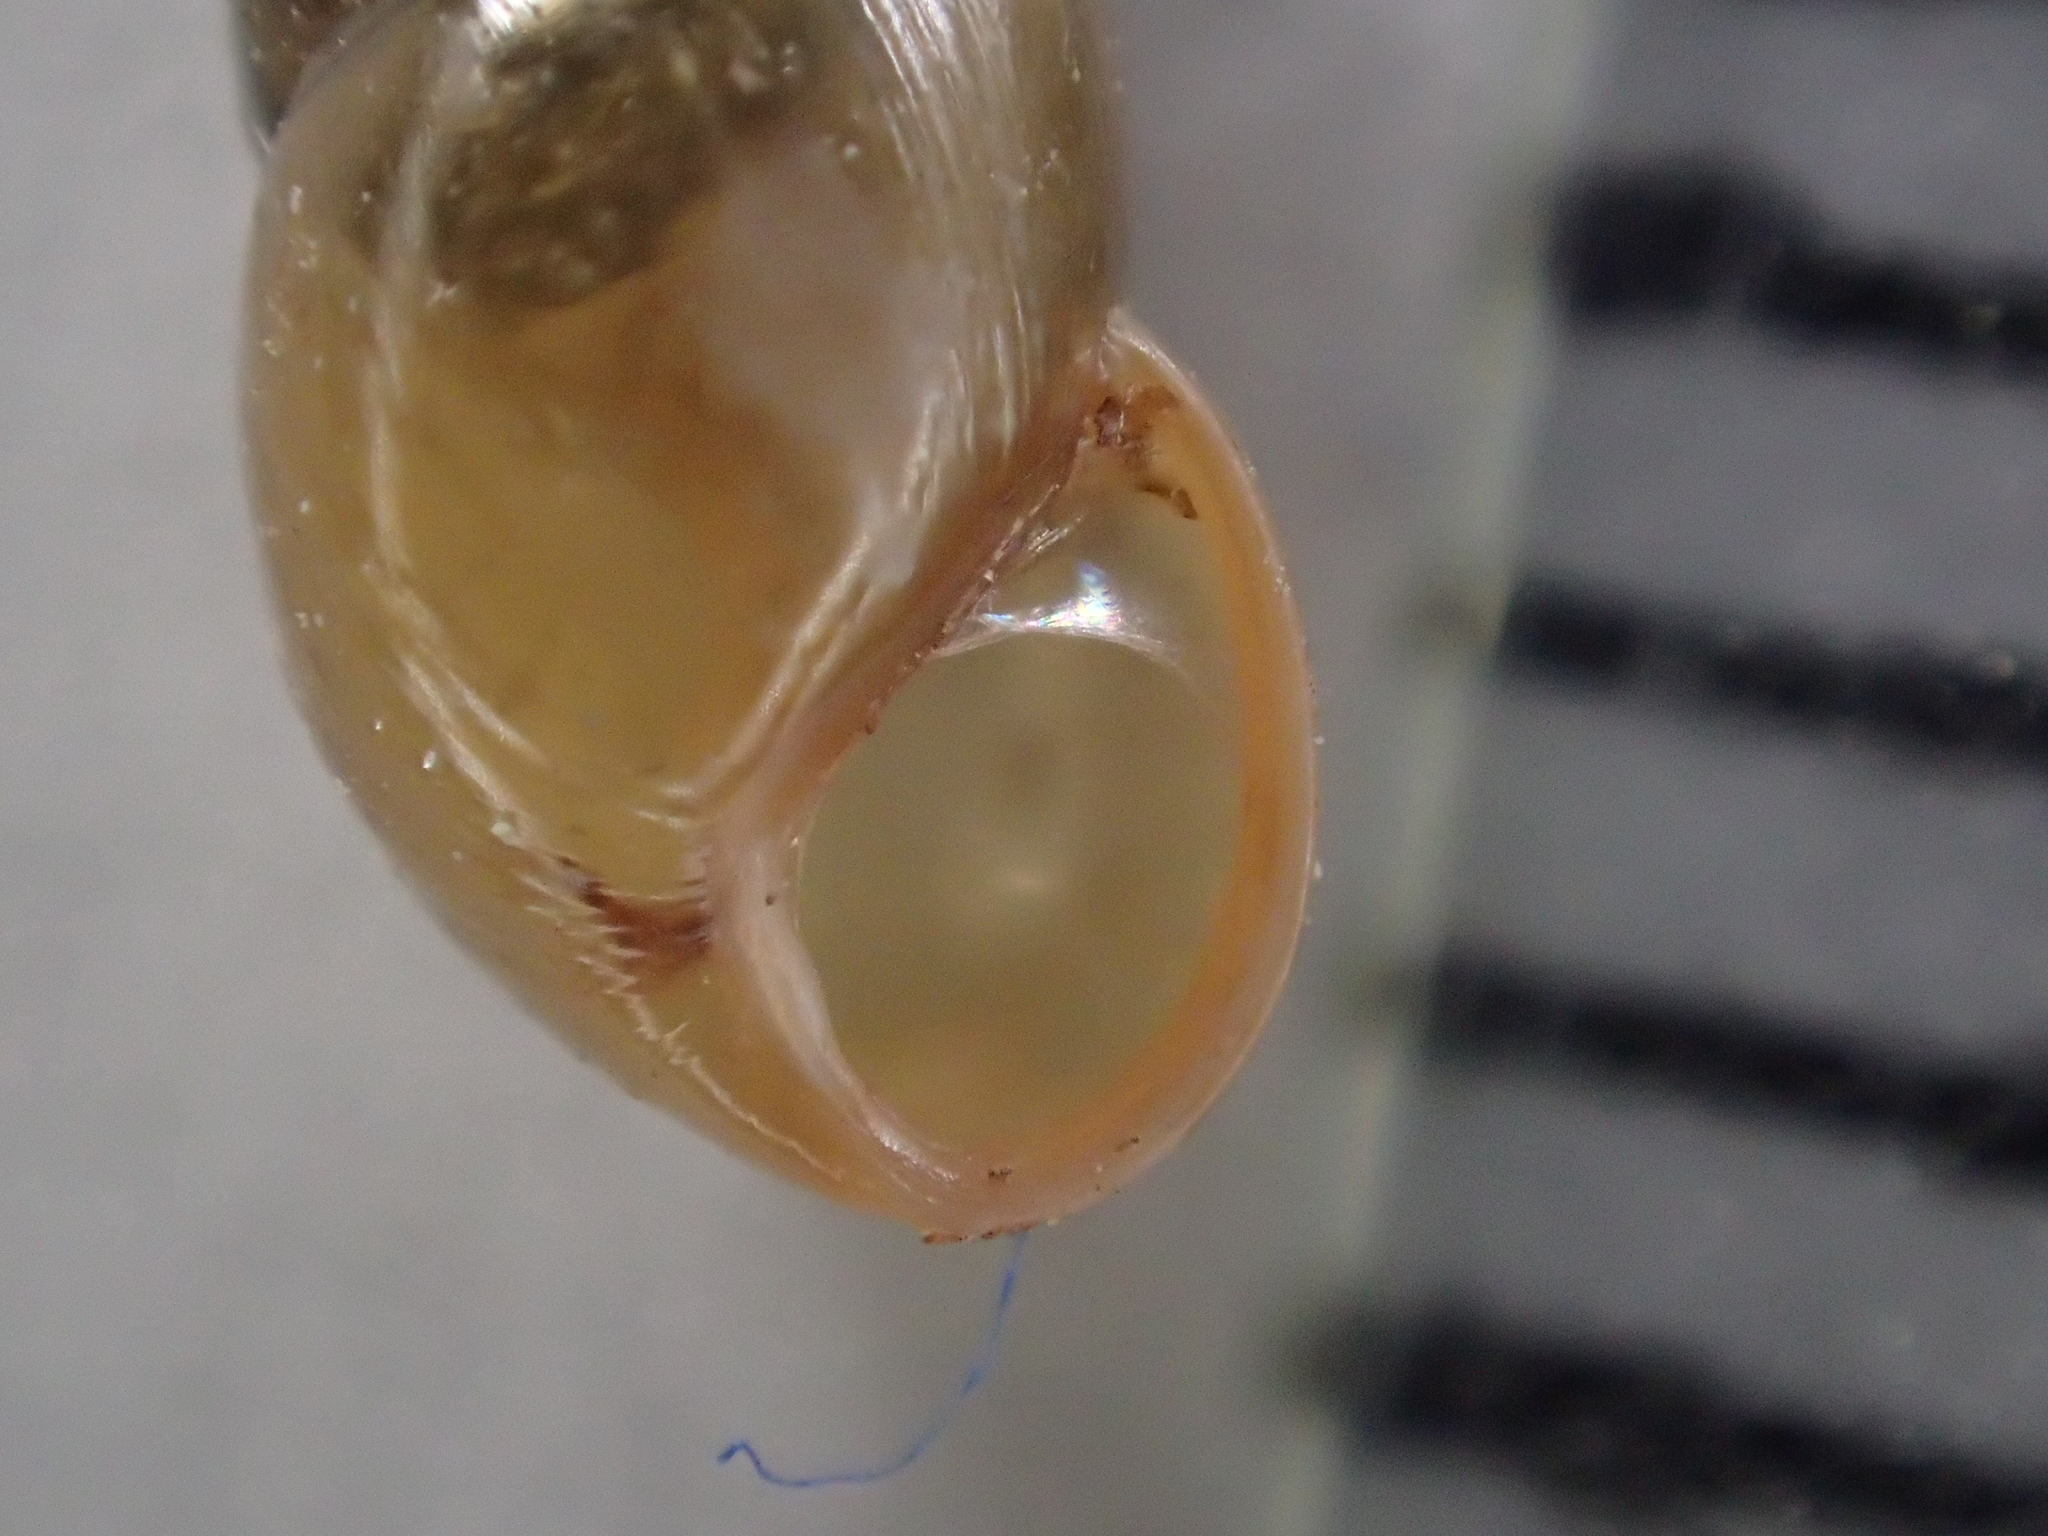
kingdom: Animalia
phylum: Mollusca
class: Gastropoda
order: Stylommatophora
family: Cochlicopidae
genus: Cochlicopa
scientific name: Cochlicopa lubrica
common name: Glossy pillar snail
